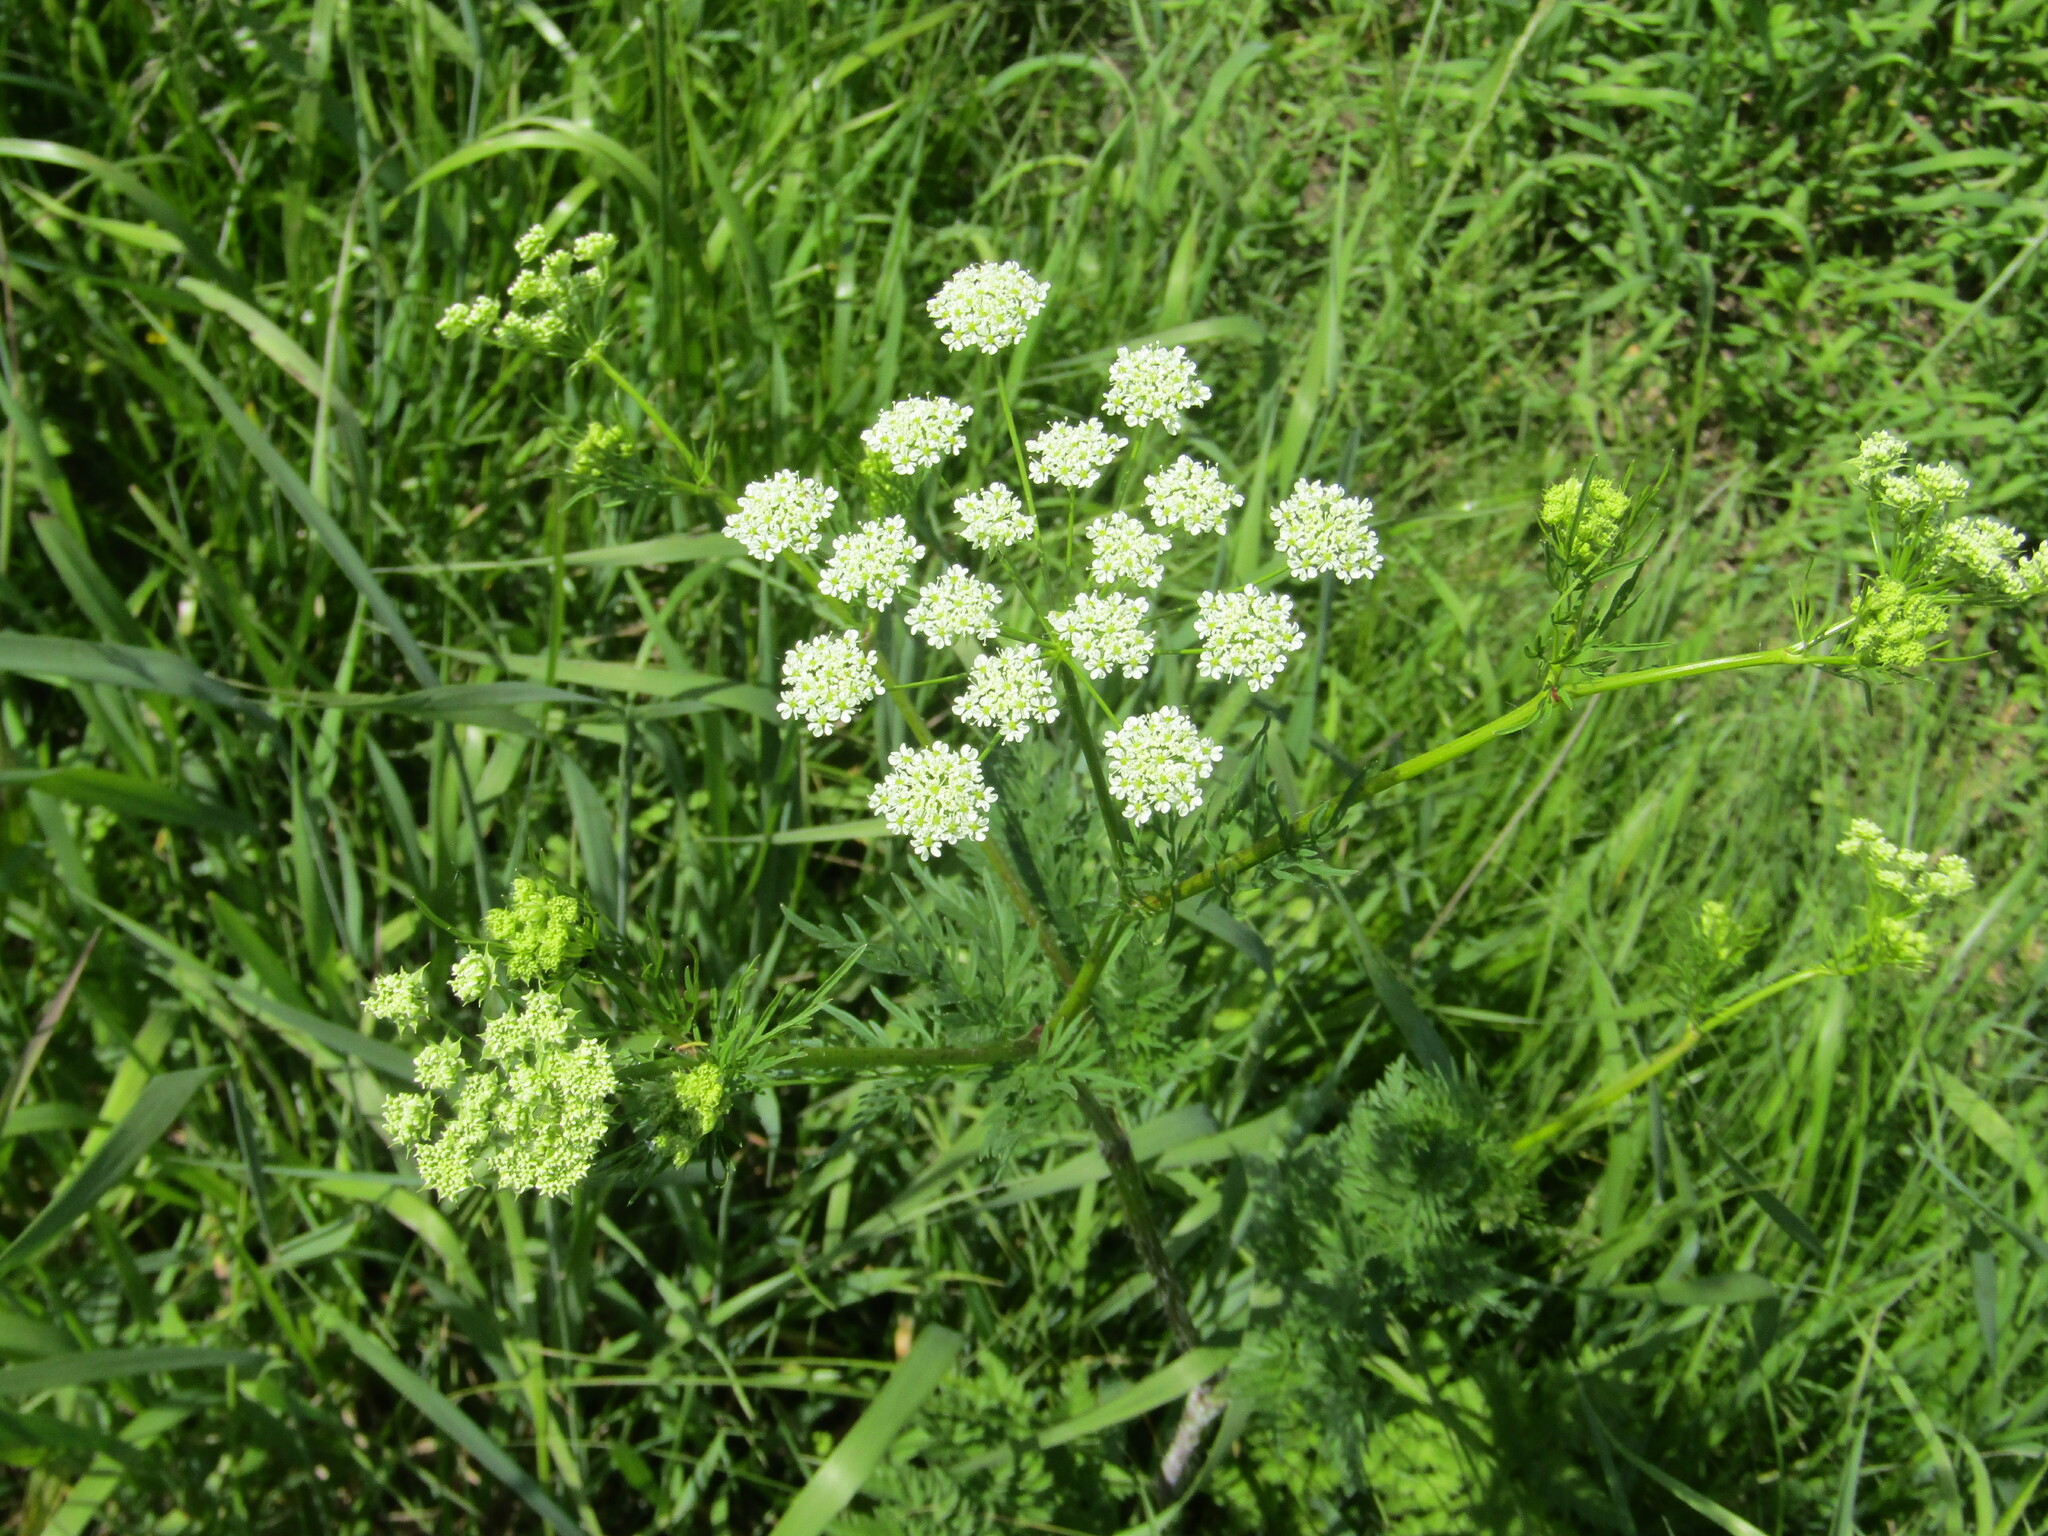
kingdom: Plantae
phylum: Tracheophyta
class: Magnoliopsida
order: Apiales
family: Apiaceae
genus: Chaerophyllum
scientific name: Chaerophyllum prescottii
